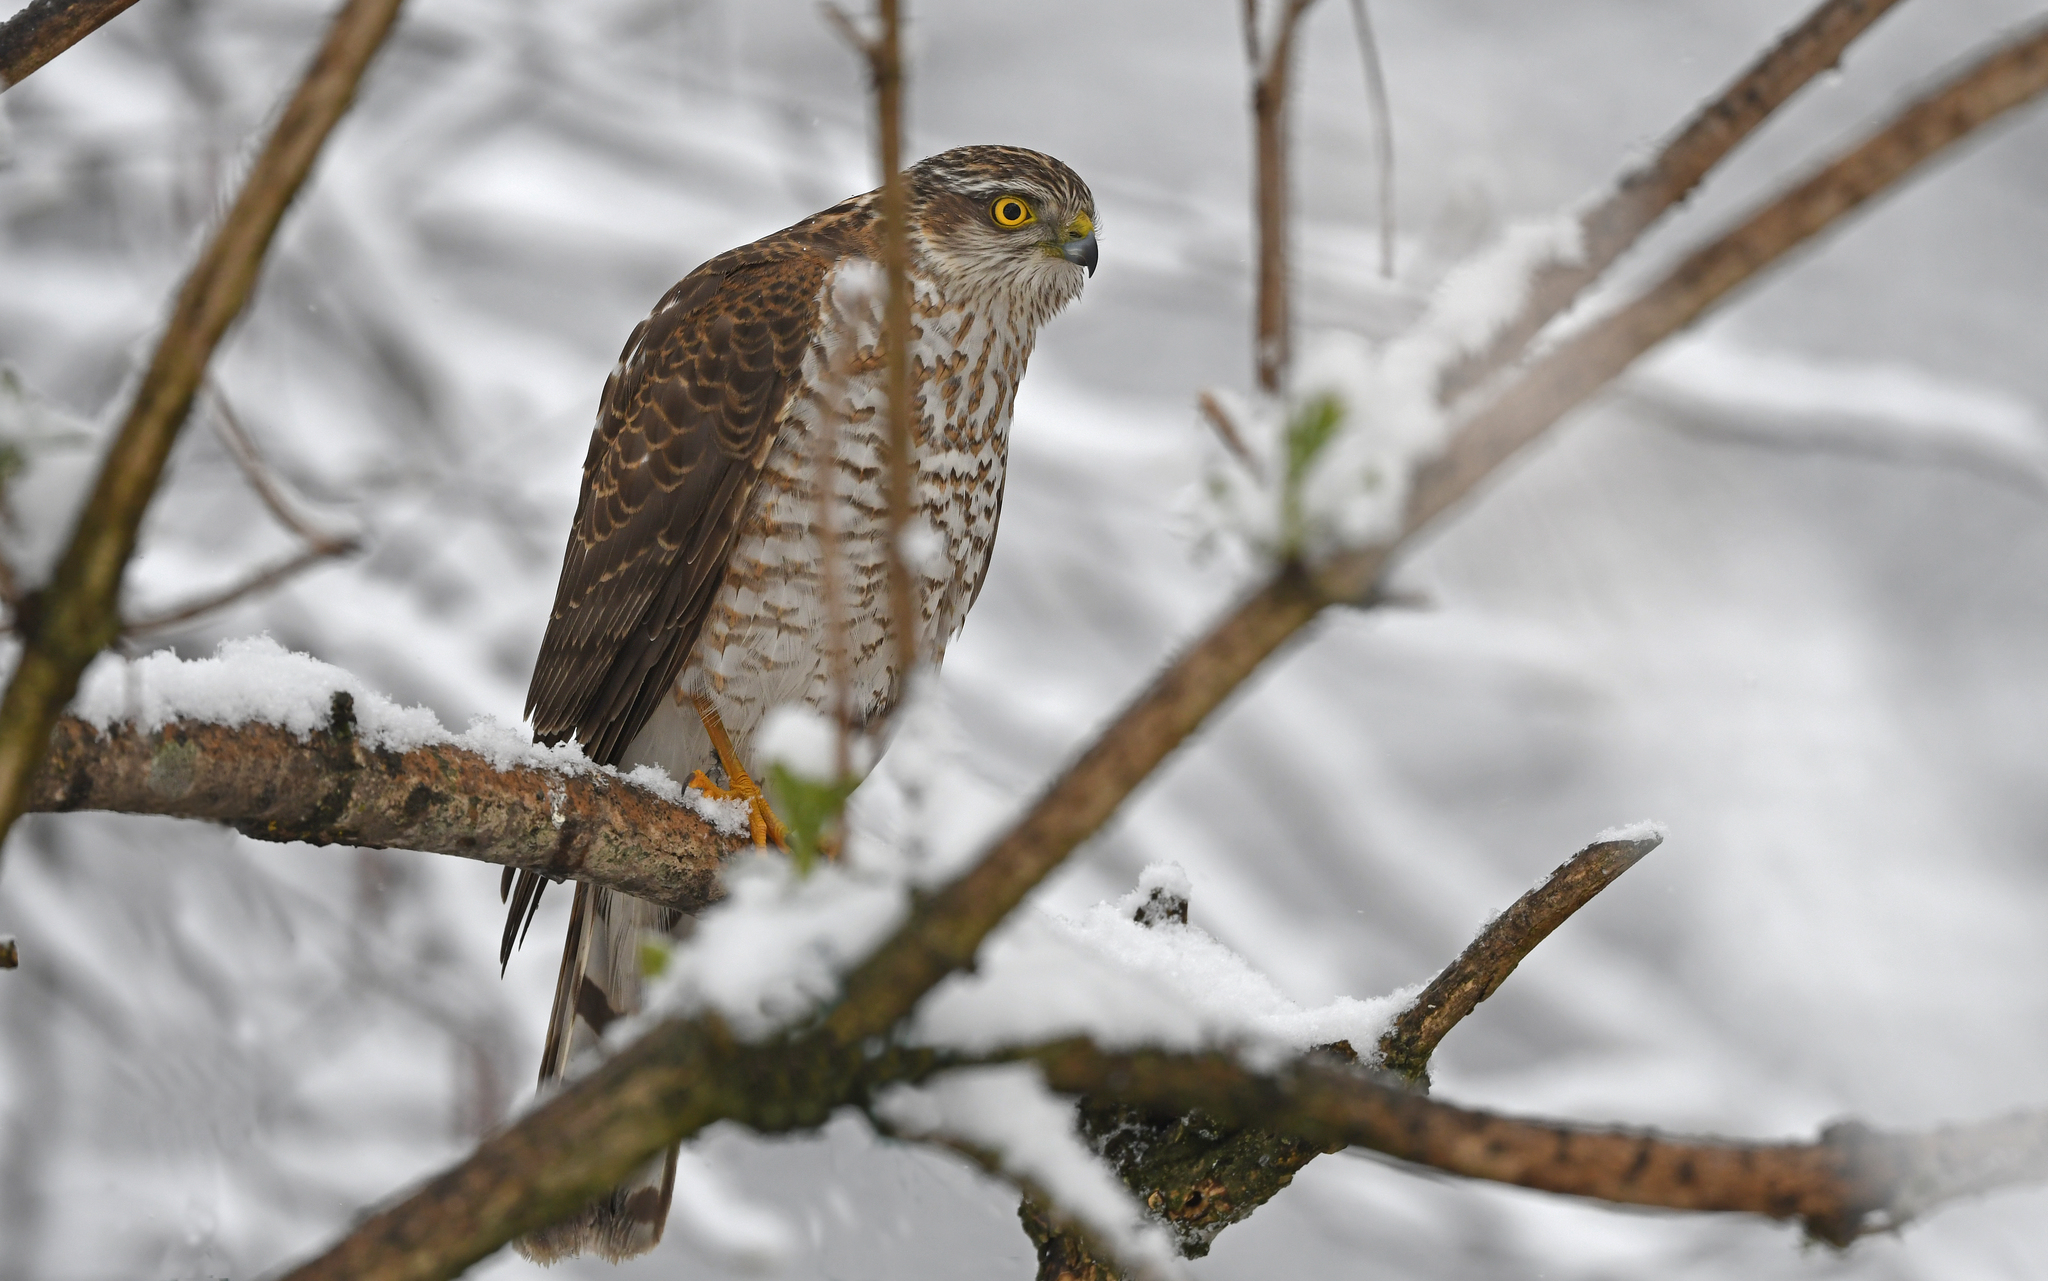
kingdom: Animalia
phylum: Chordata
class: Aves
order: Accipitriformes
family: Accipitridae
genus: Accipiter
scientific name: Accipiter nisus
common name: Eurasian sparrowhawk
